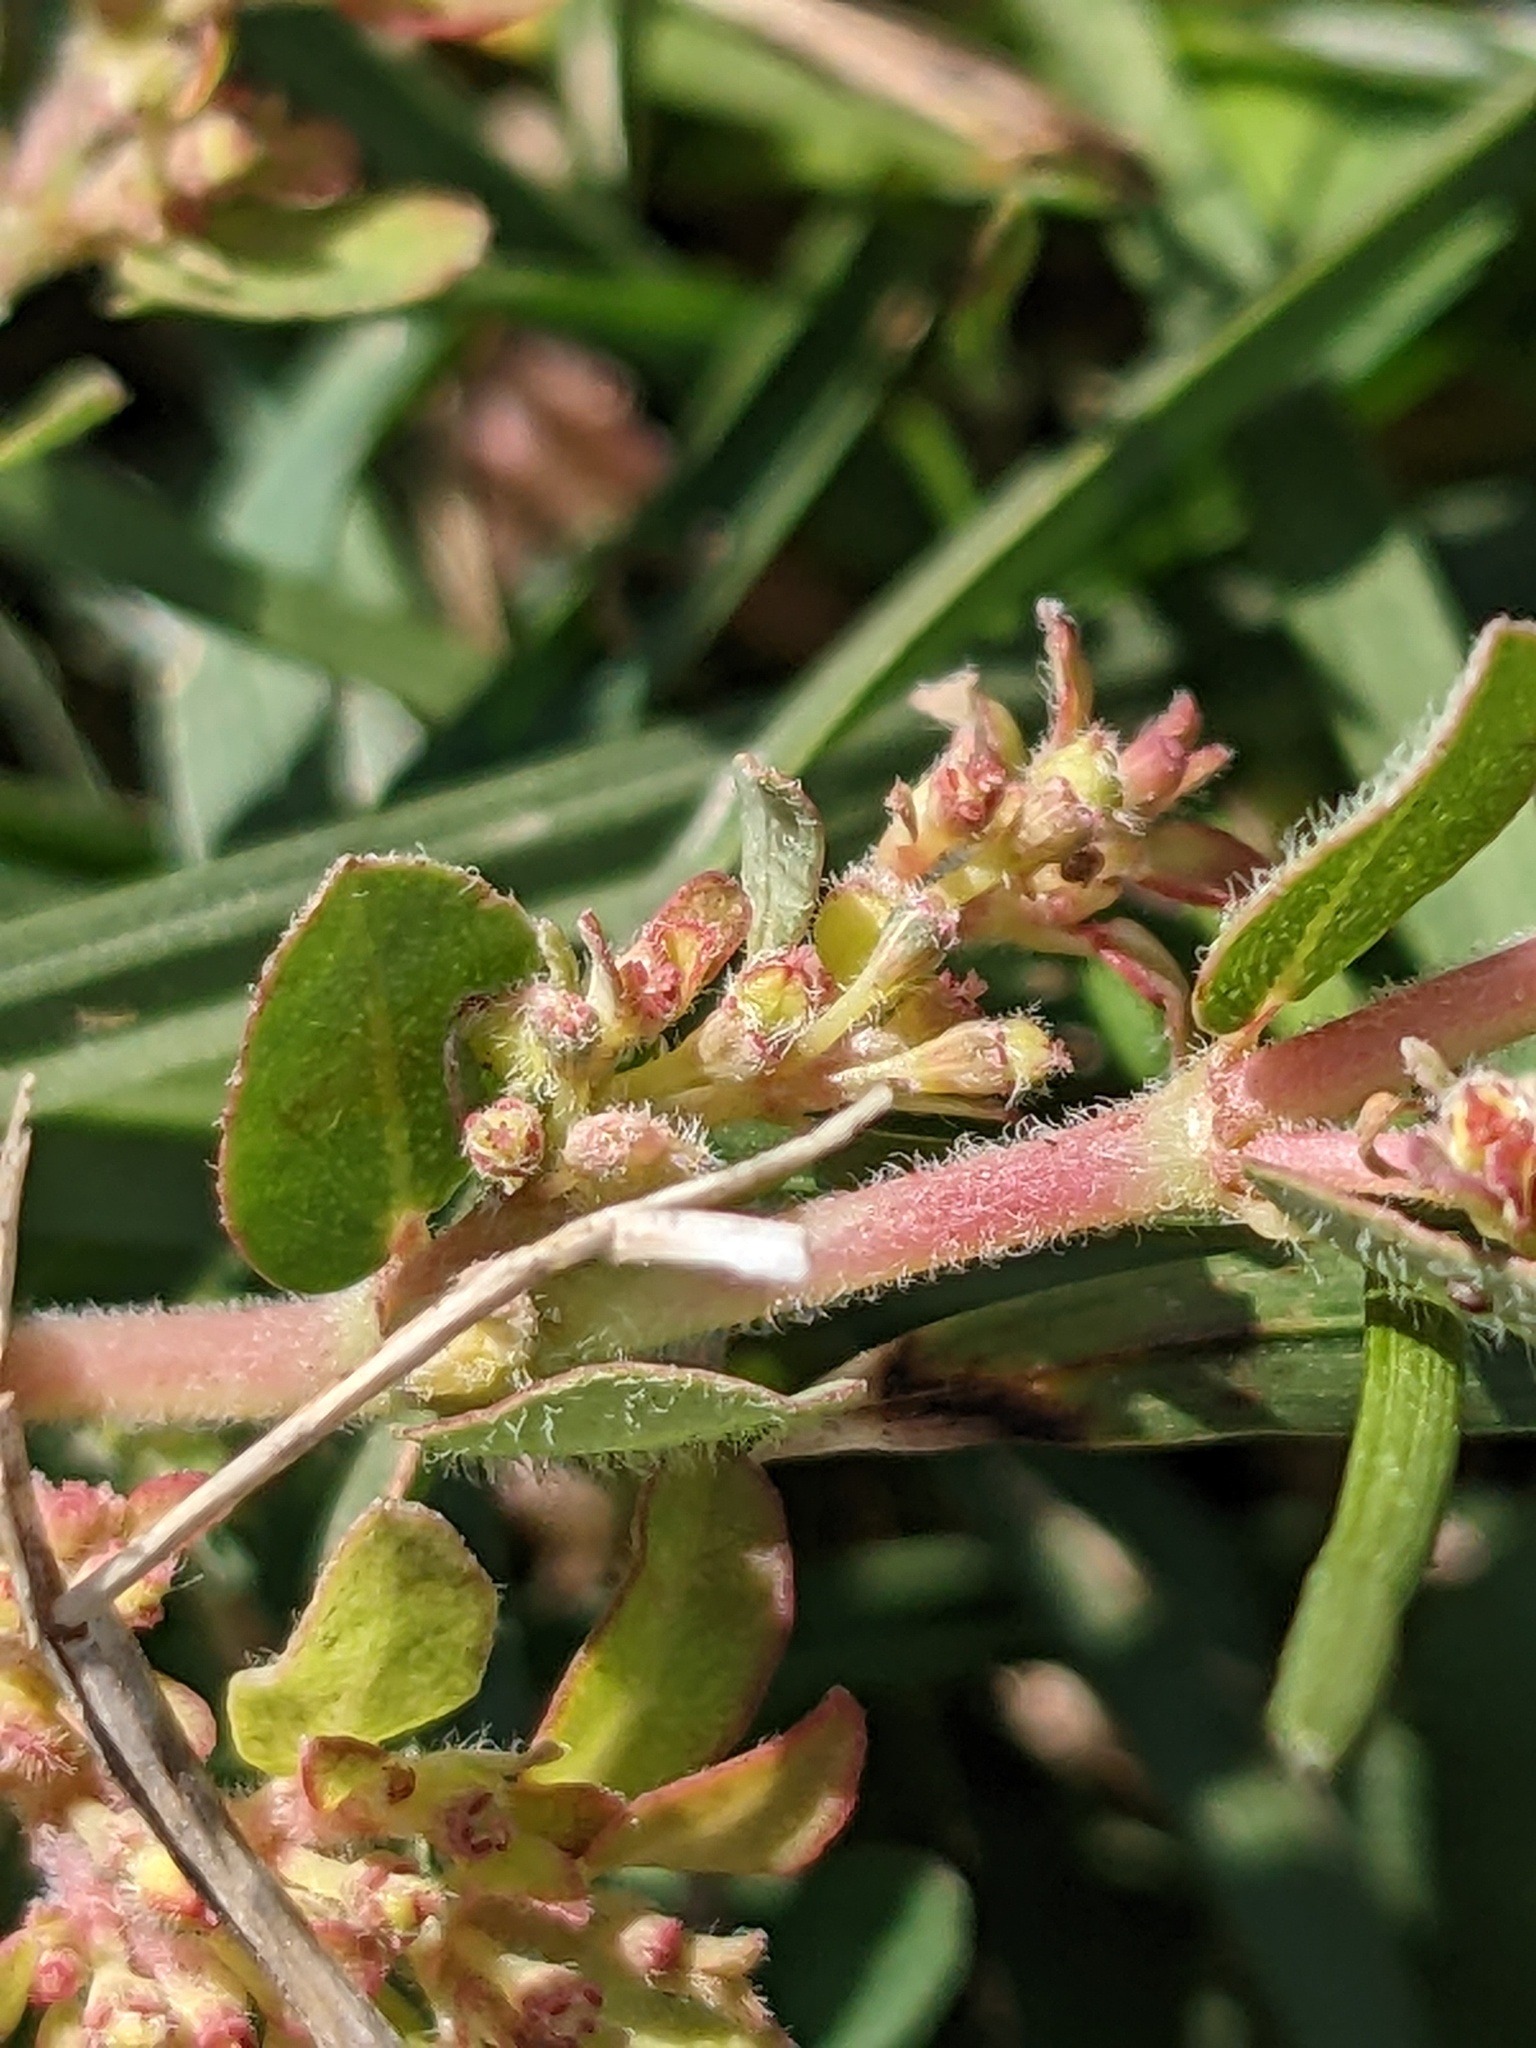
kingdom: Plantae
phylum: Tracheophyta
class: Magnoliopsida
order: Malpighiales
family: Euphorbiaceae
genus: Euphorbia
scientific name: Euphorbia prostrata
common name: Prostrate sandmat
